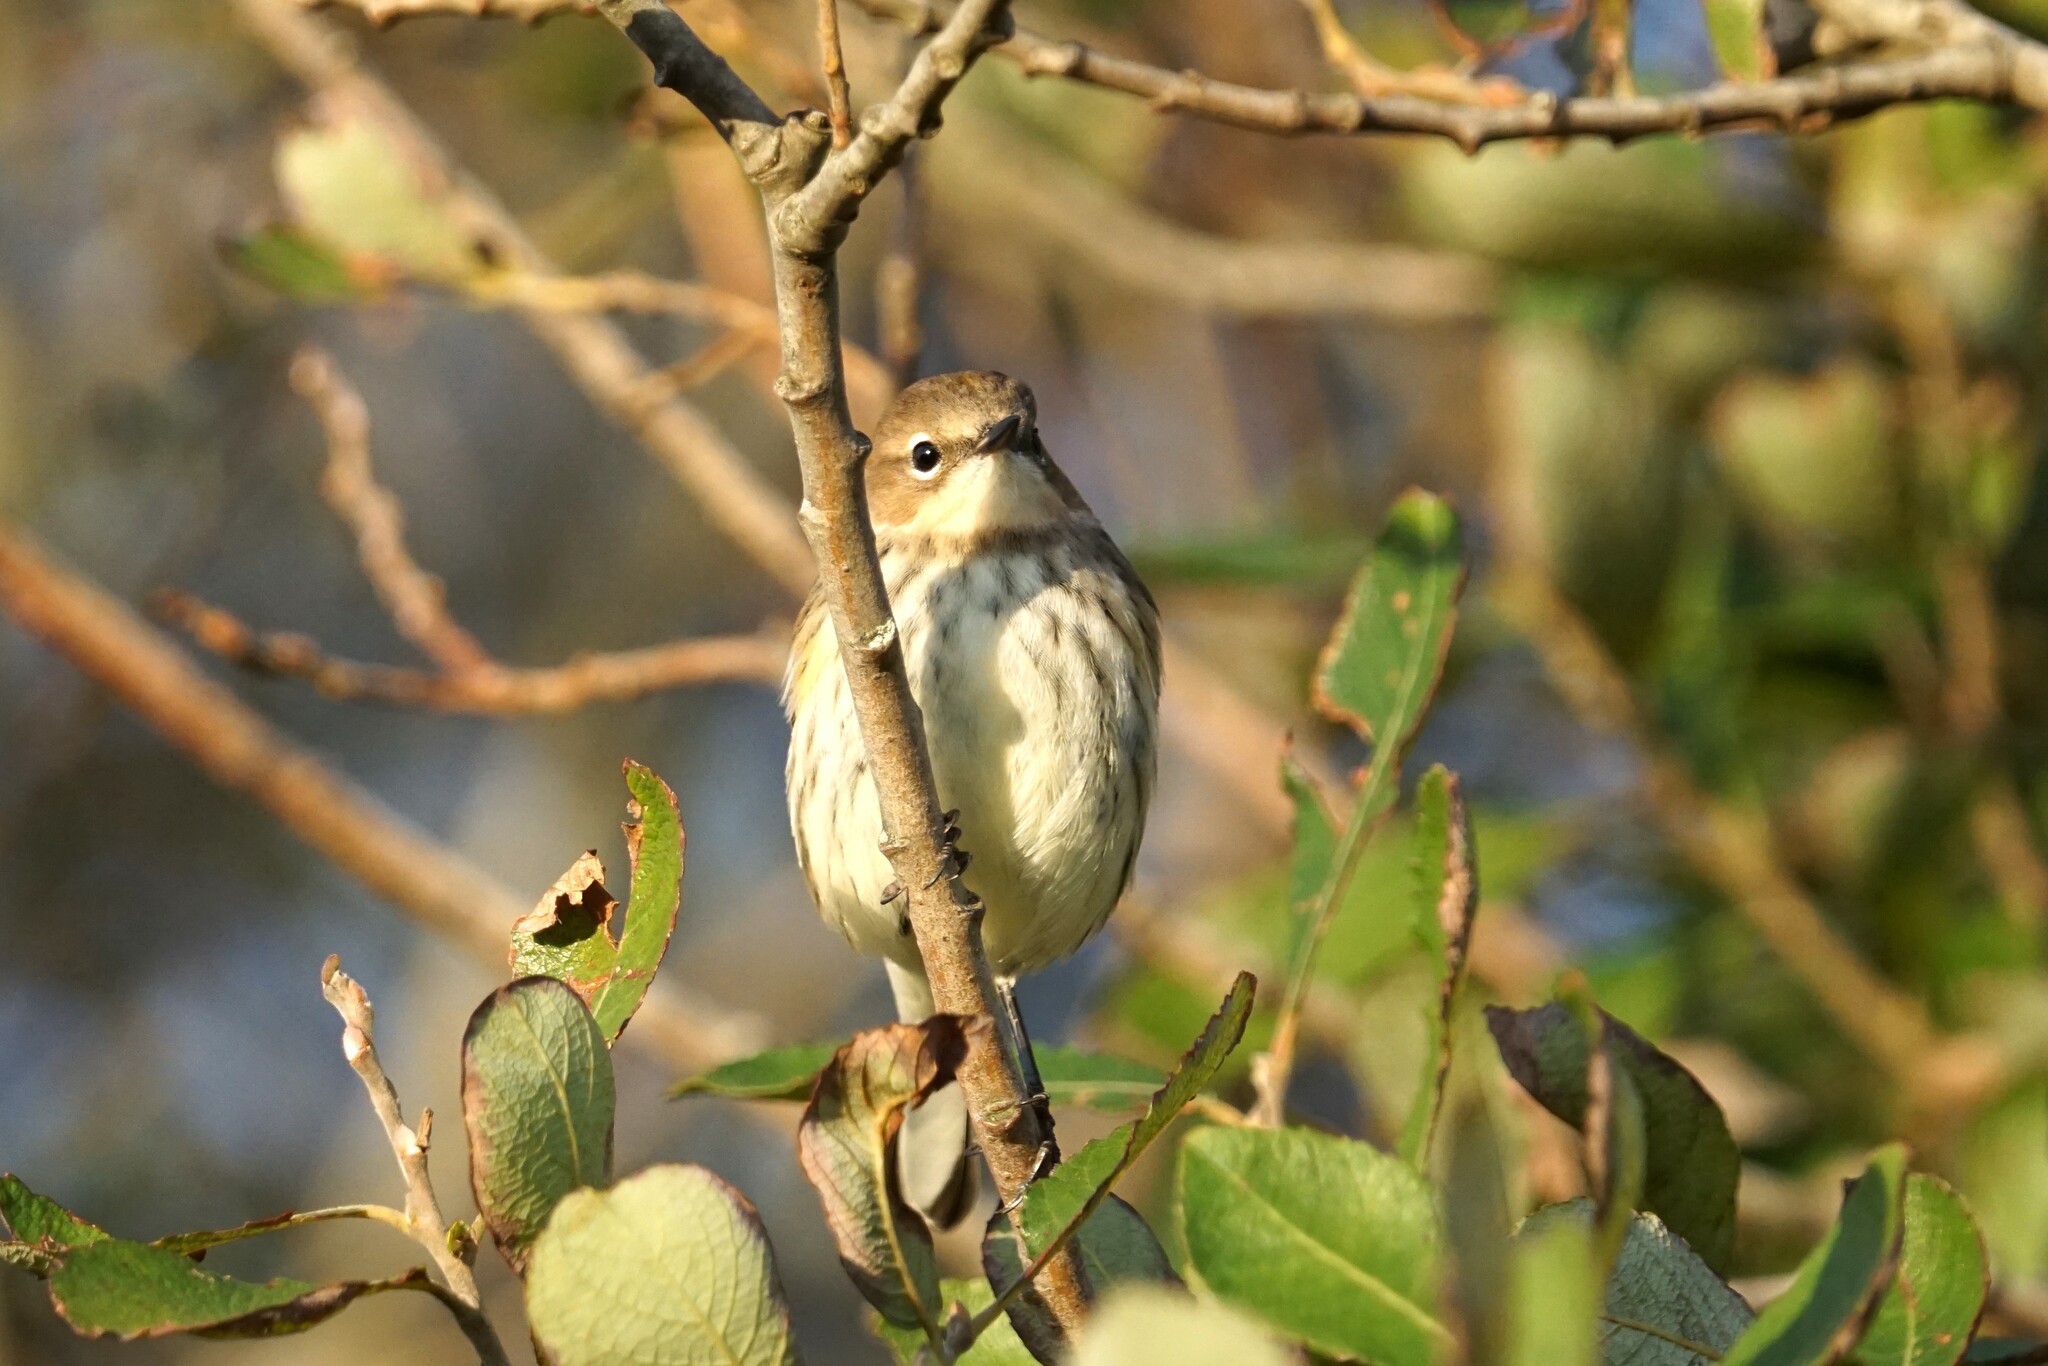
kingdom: Animalia
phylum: Chordata
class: Aves
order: Passeriformes
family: Parulidae
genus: Setophaga
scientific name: Setophaga coronata
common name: Myrtle warbler
